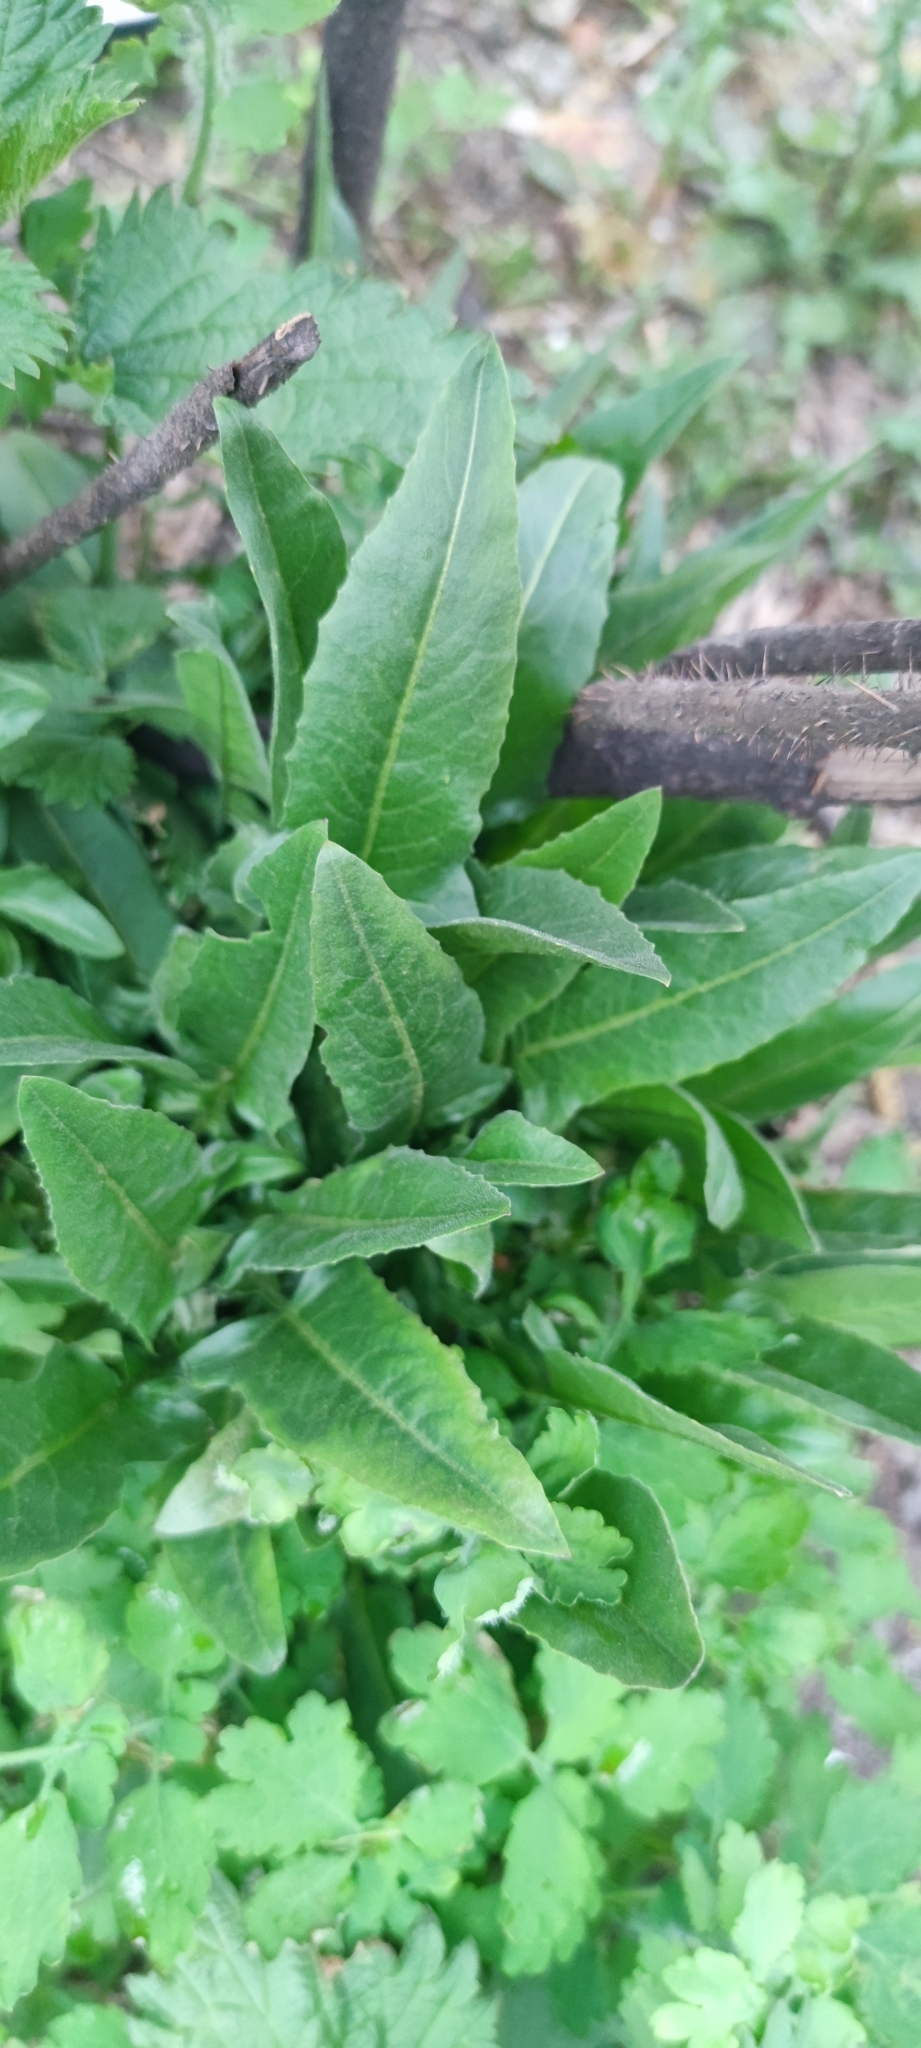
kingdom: Plantae
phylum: Tracheophyta
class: Magnoliopsida
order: Brassicales
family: Brassicaceae
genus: Bunias
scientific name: Bunias orientalis
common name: Warty-cabbage
